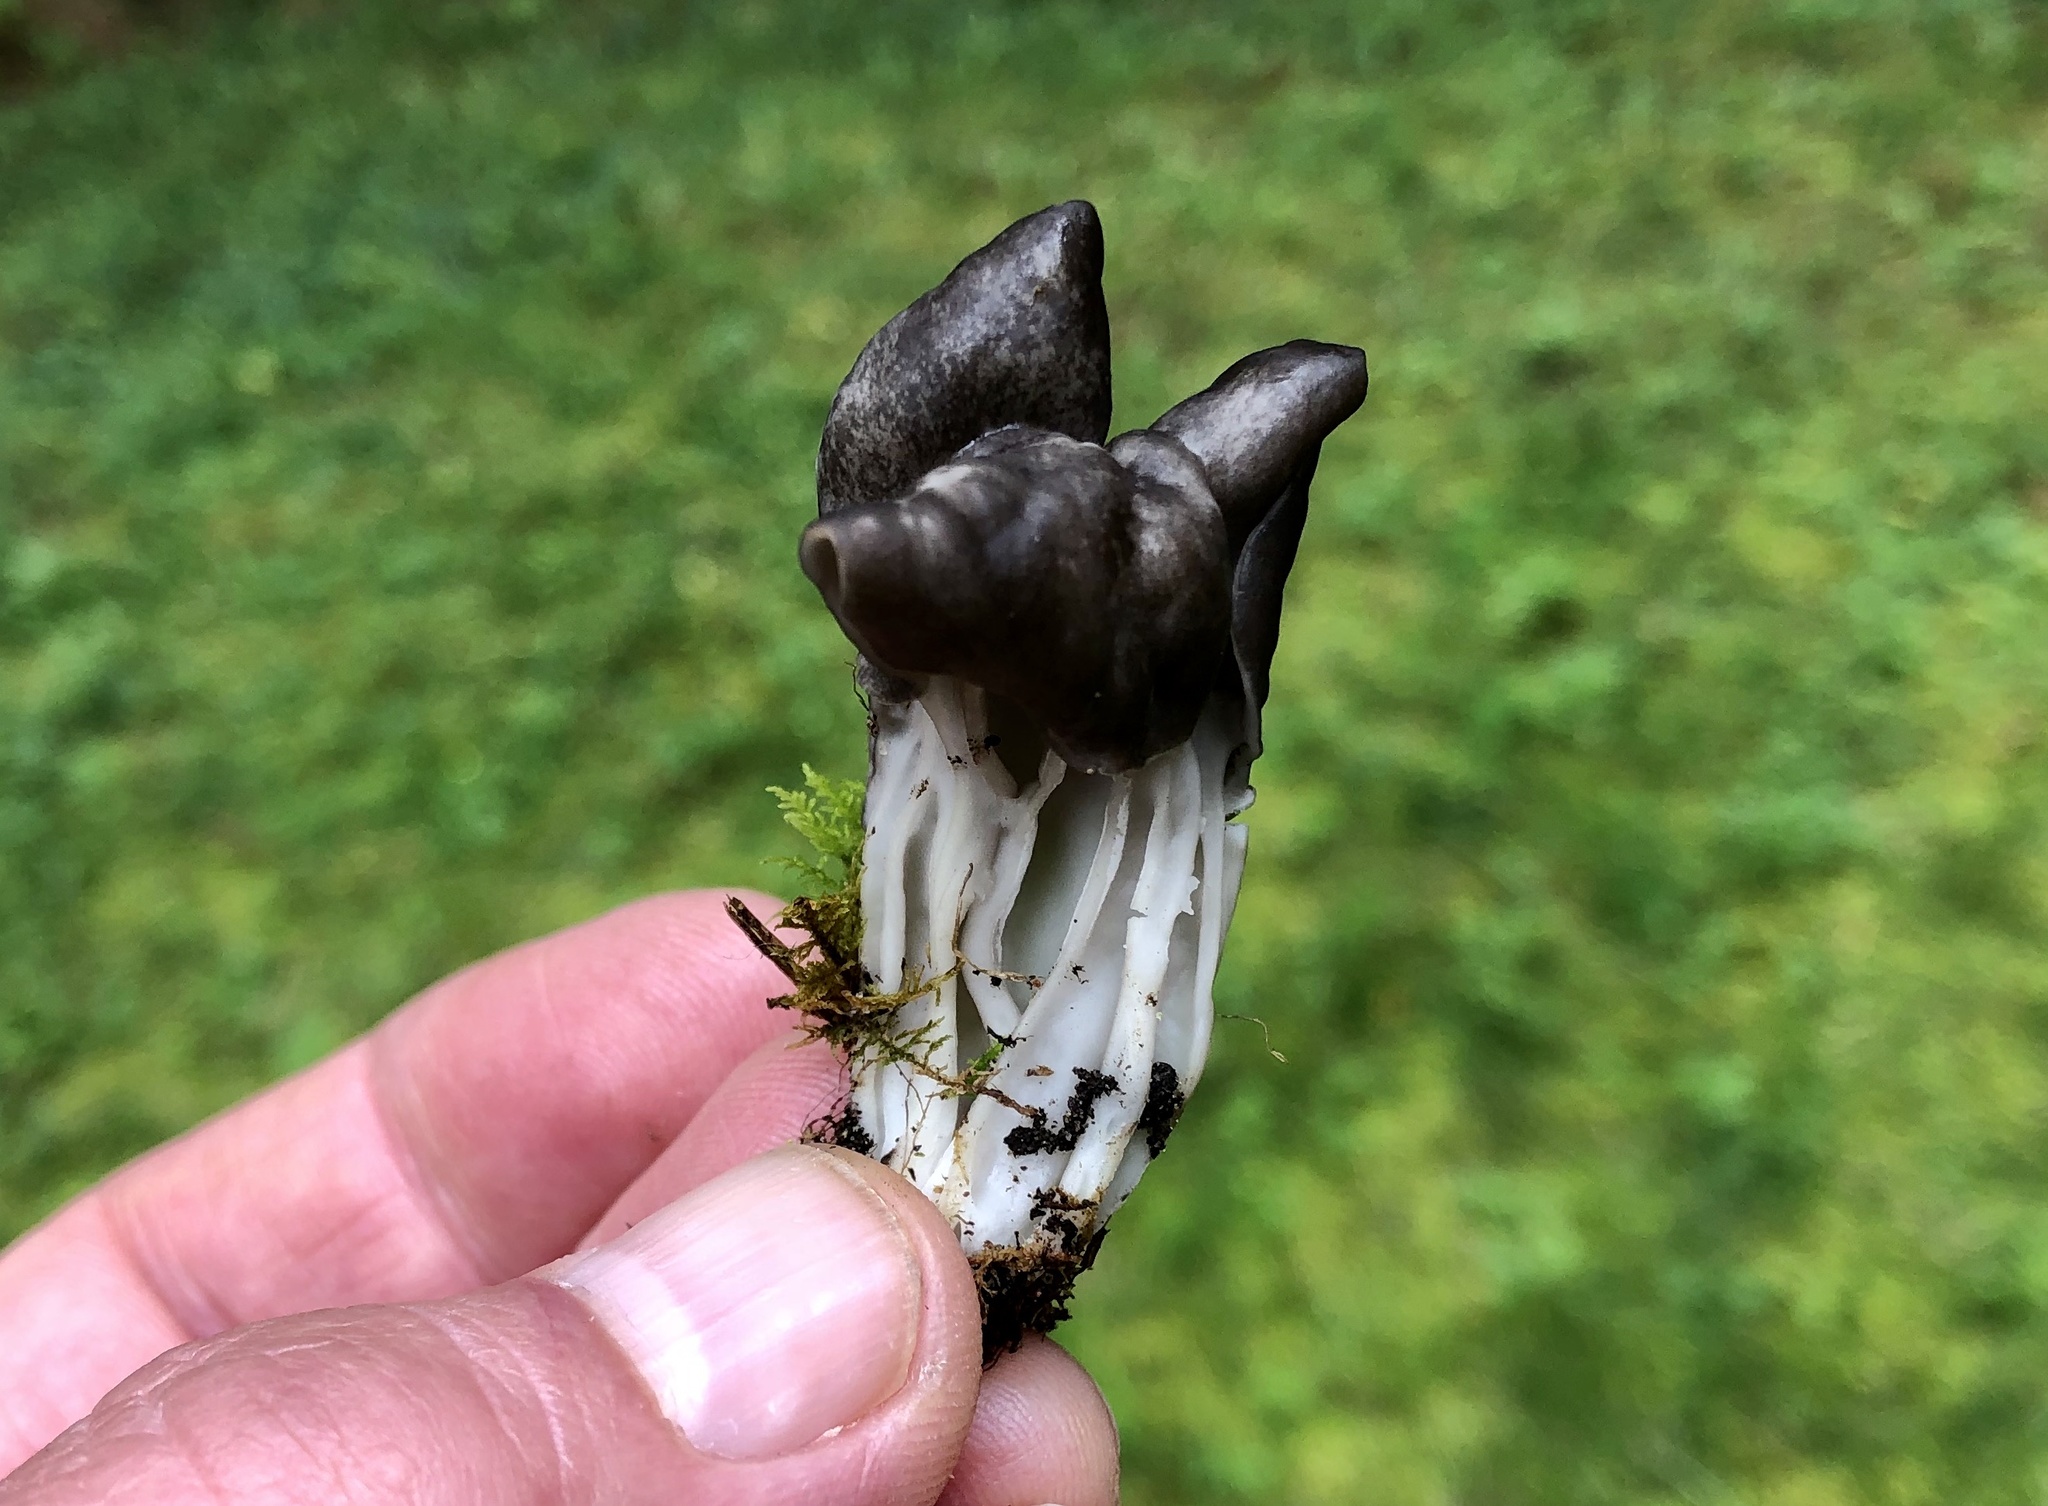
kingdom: Fungi
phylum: Ascomycota
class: Pezizomycetes
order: Pezizales
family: Helvellaceae
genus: Helvella
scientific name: Helvella lacunosa
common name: Elfin saddle
